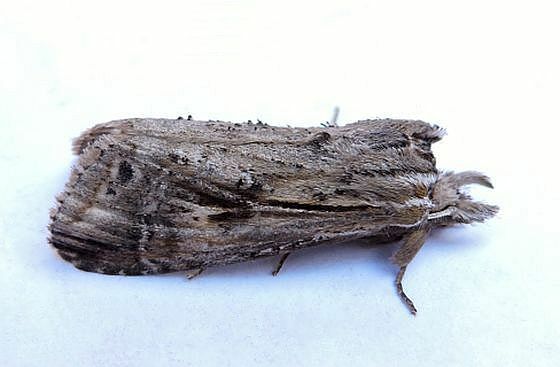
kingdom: Animalia
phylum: Arthropoda
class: Insecta
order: Lepidoptera
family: Notodontidae
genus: Dasylophia
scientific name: Dasylophia anguina
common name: Black-spotted prominent
